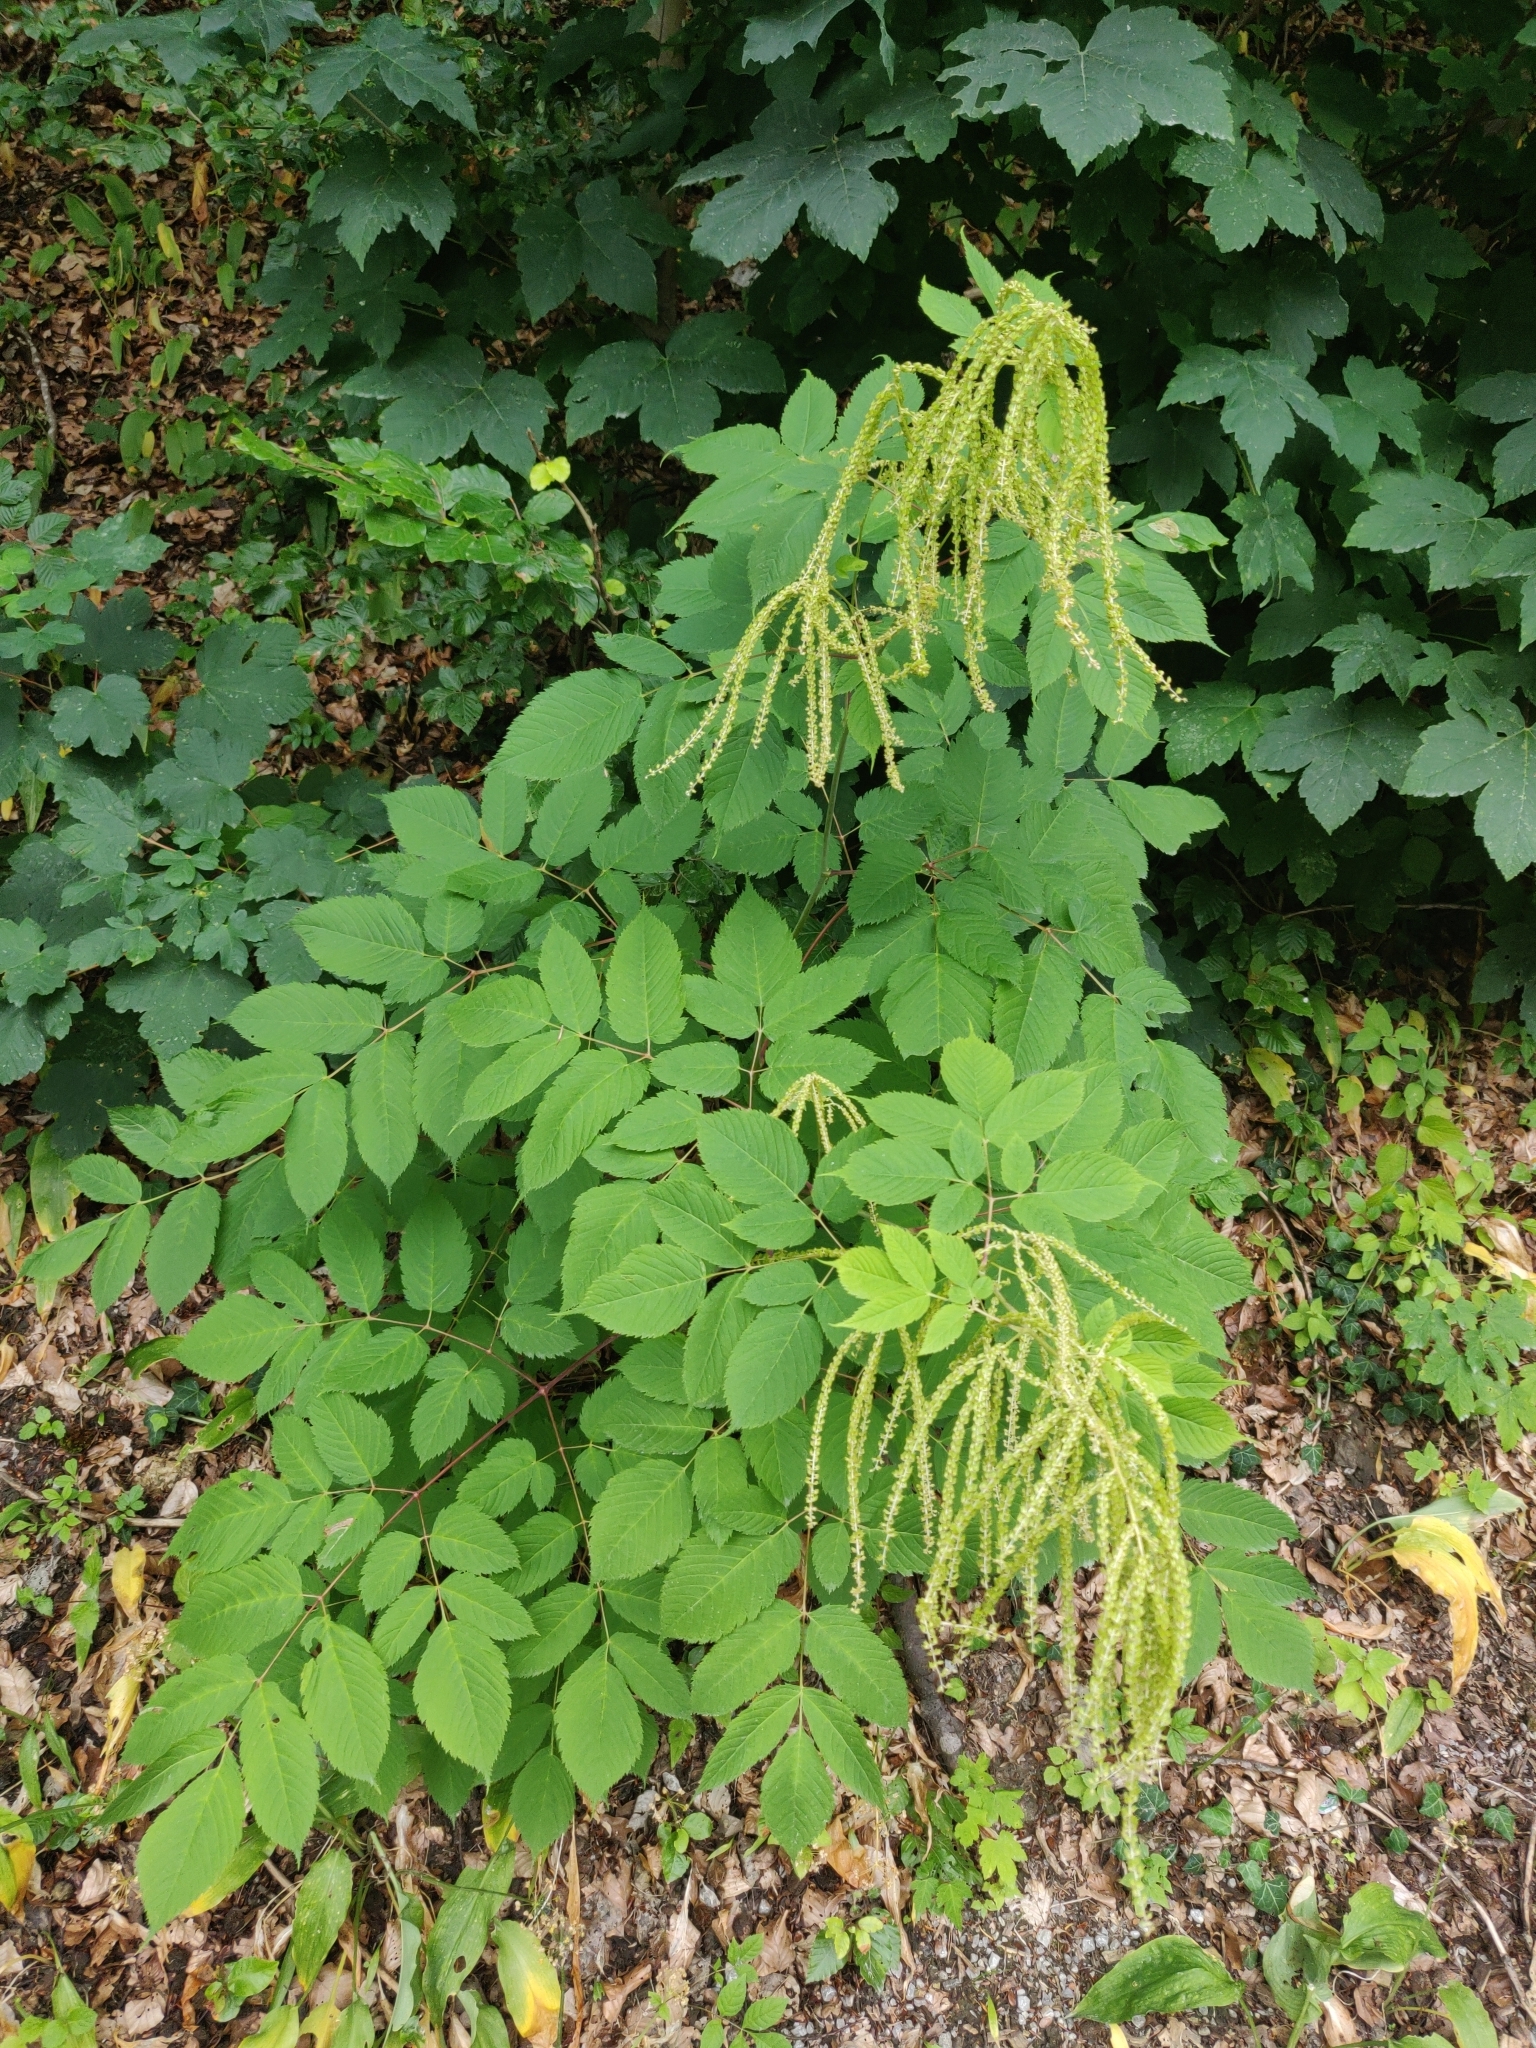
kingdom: Plantae
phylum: Tracheophyta
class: Magnoliopsida
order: Rosales
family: Rosaceae
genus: Aruncus
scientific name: Aruncus dioicus
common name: Buck's-beard
